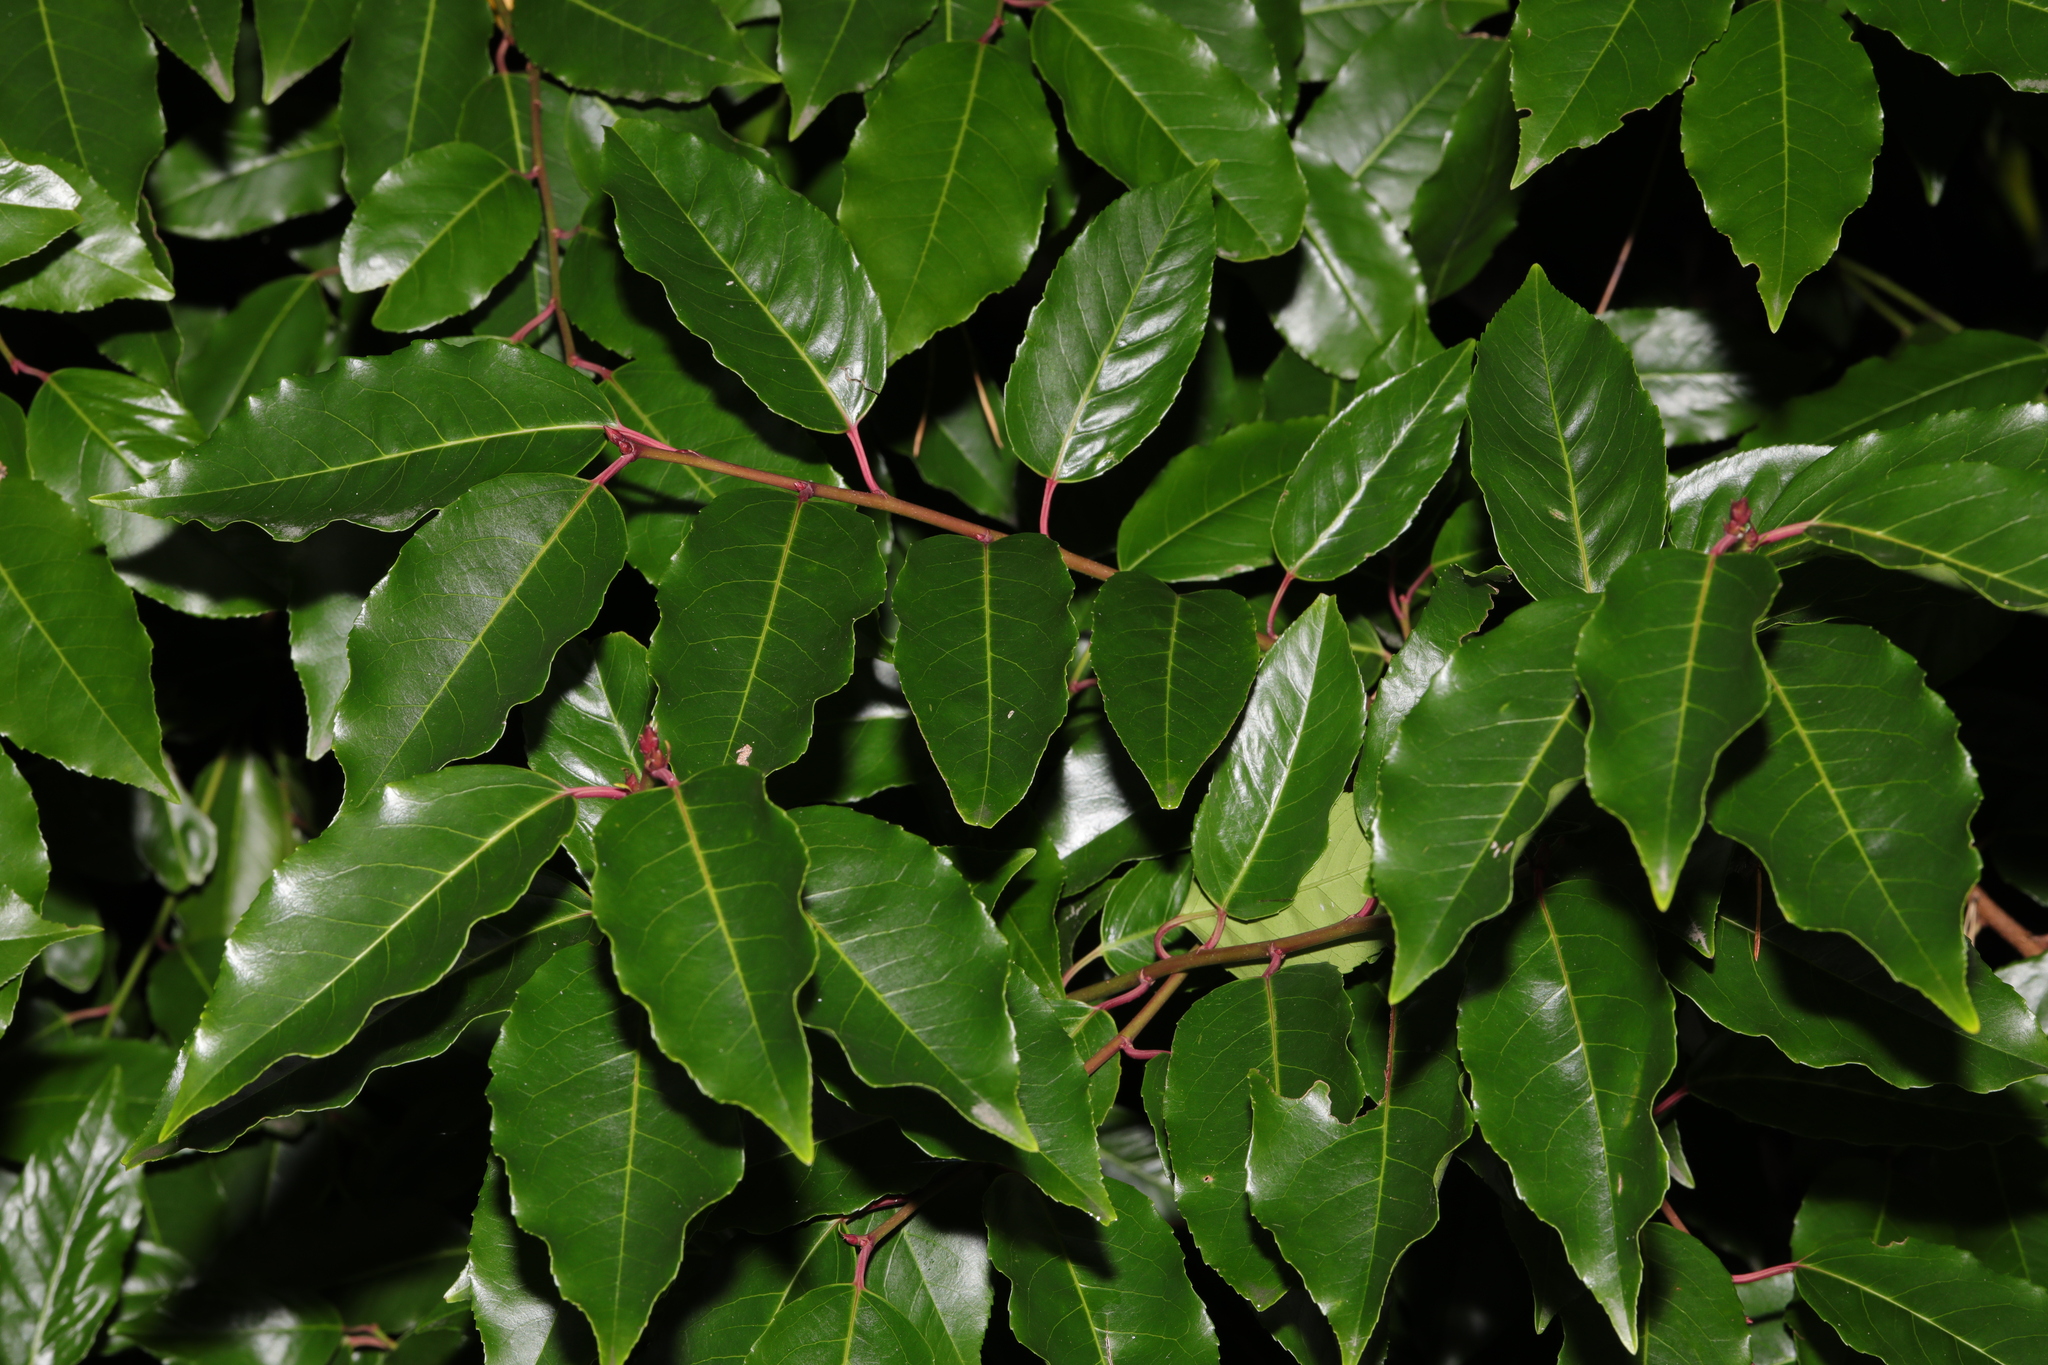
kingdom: Plantae
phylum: Tracheophyta
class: Magnoliopsida
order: Rosales
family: Rosaceae
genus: Prunus
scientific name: Prunus lusitanica
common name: Portugal laurel
